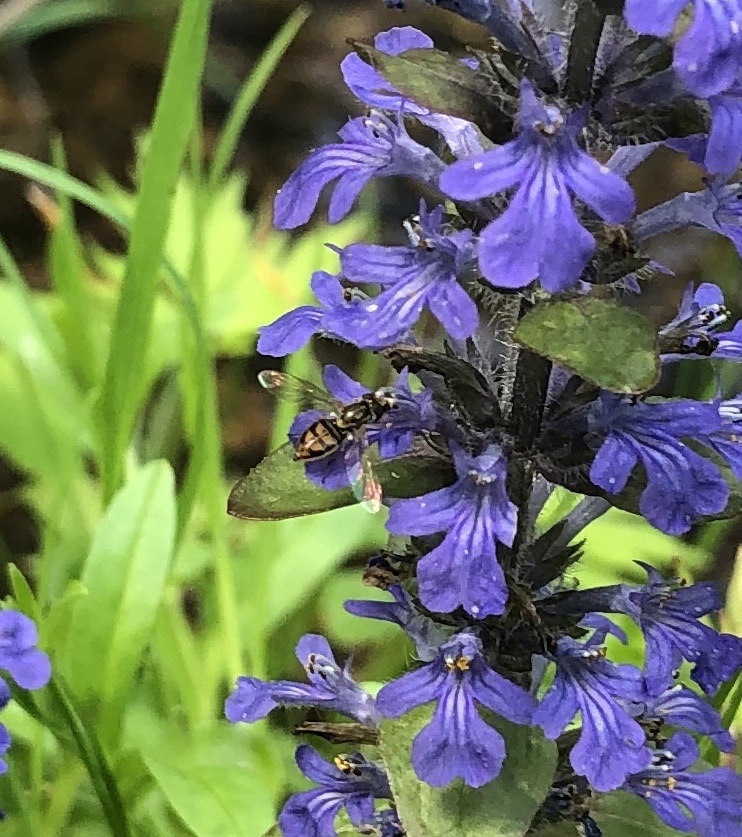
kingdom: Animalia
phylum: Arthropoda
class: Insecta
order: Diptera
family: Syrphidae
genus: Toxomerus
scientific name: Toxomerus marginatus
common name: Syrphid fly
